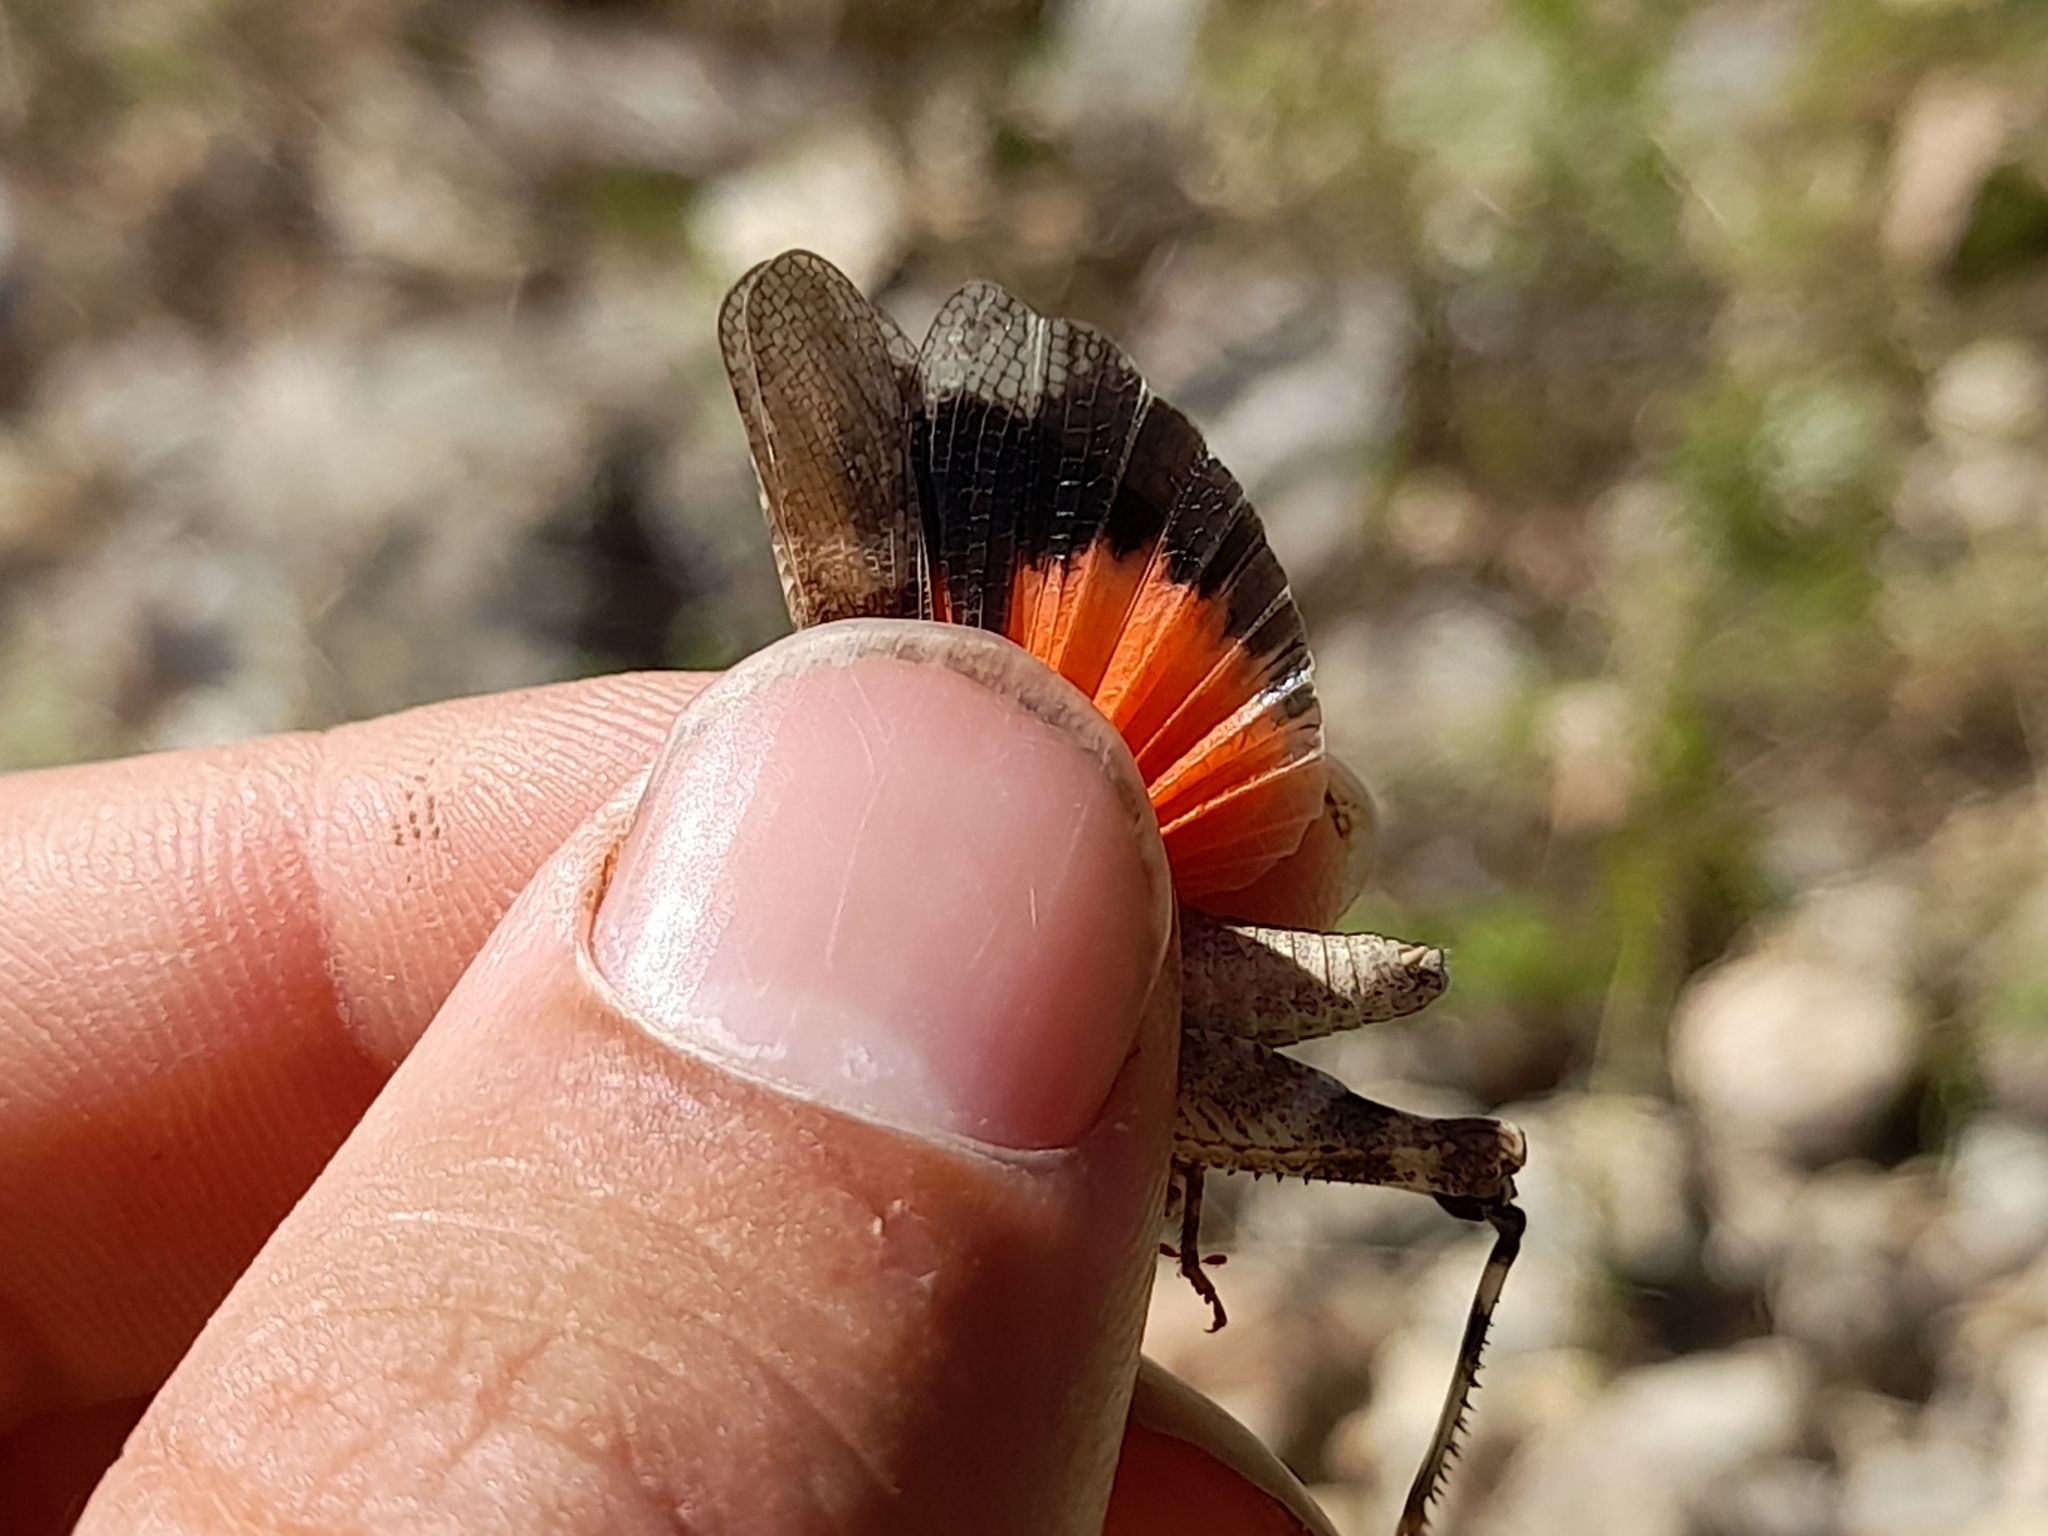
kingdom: Animalia
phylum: Arthropoda
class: Insecta
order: Orthoptera
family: Acrididae
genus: Oedipoda
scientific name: Oedipoda germanica
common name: Red band-winged grasshopper
